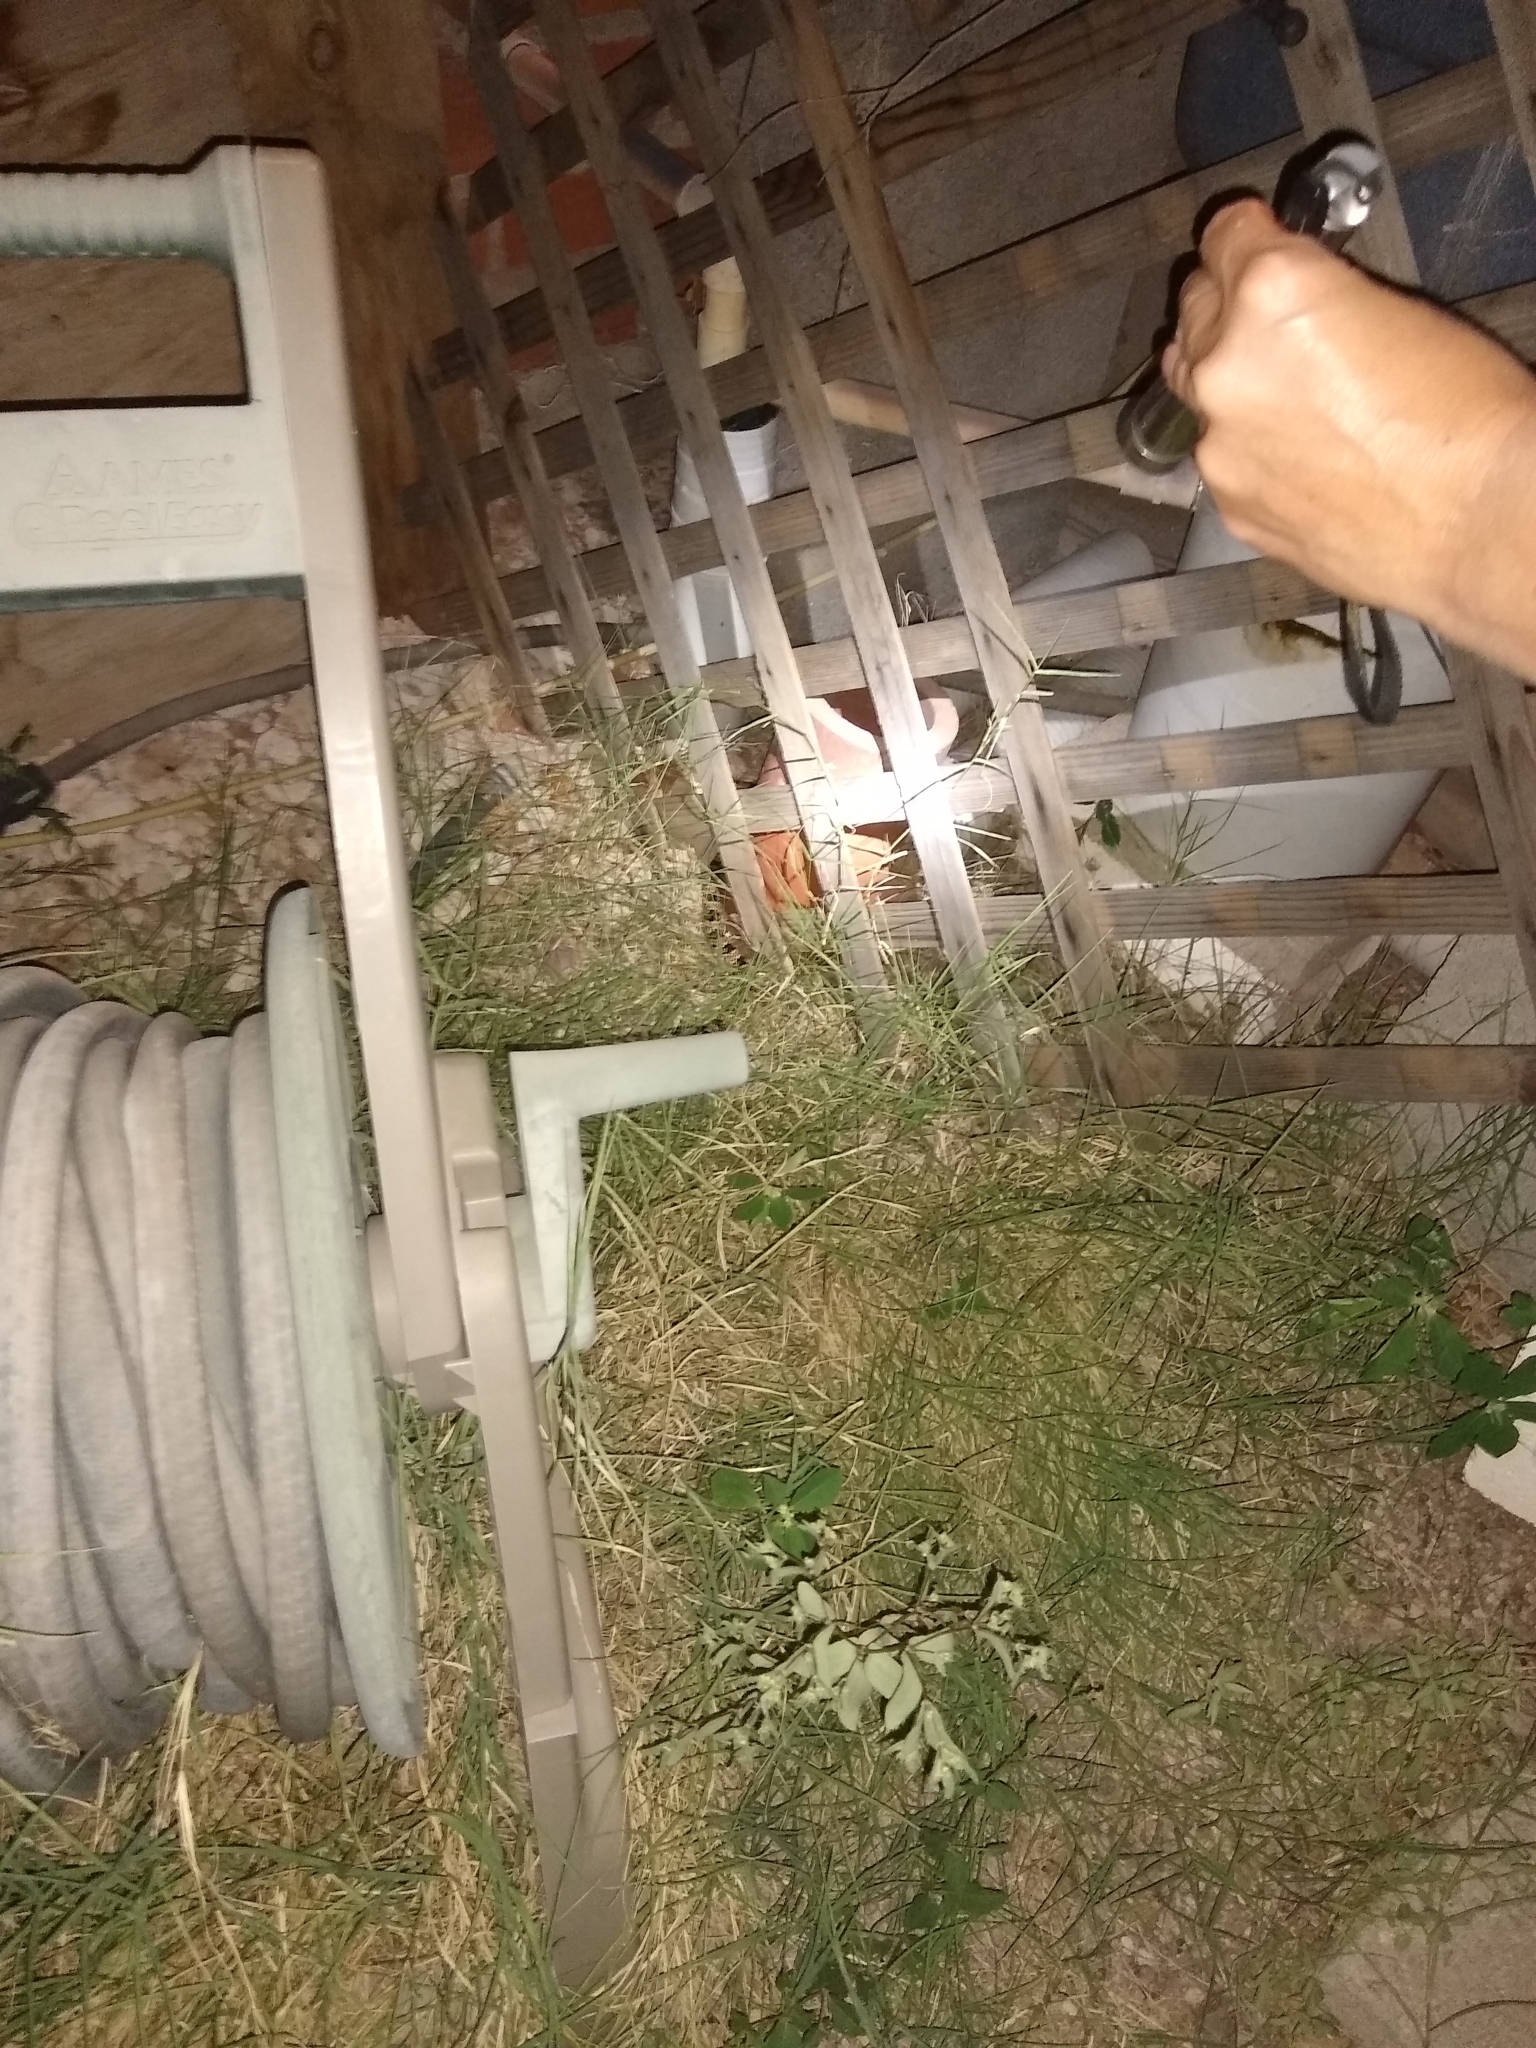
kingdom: Animalia
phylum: Chordata
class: Squamata
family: Colubridae
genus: Rhinocheilus
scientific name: Rhinocheilus lecontei
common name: Longnose snake
